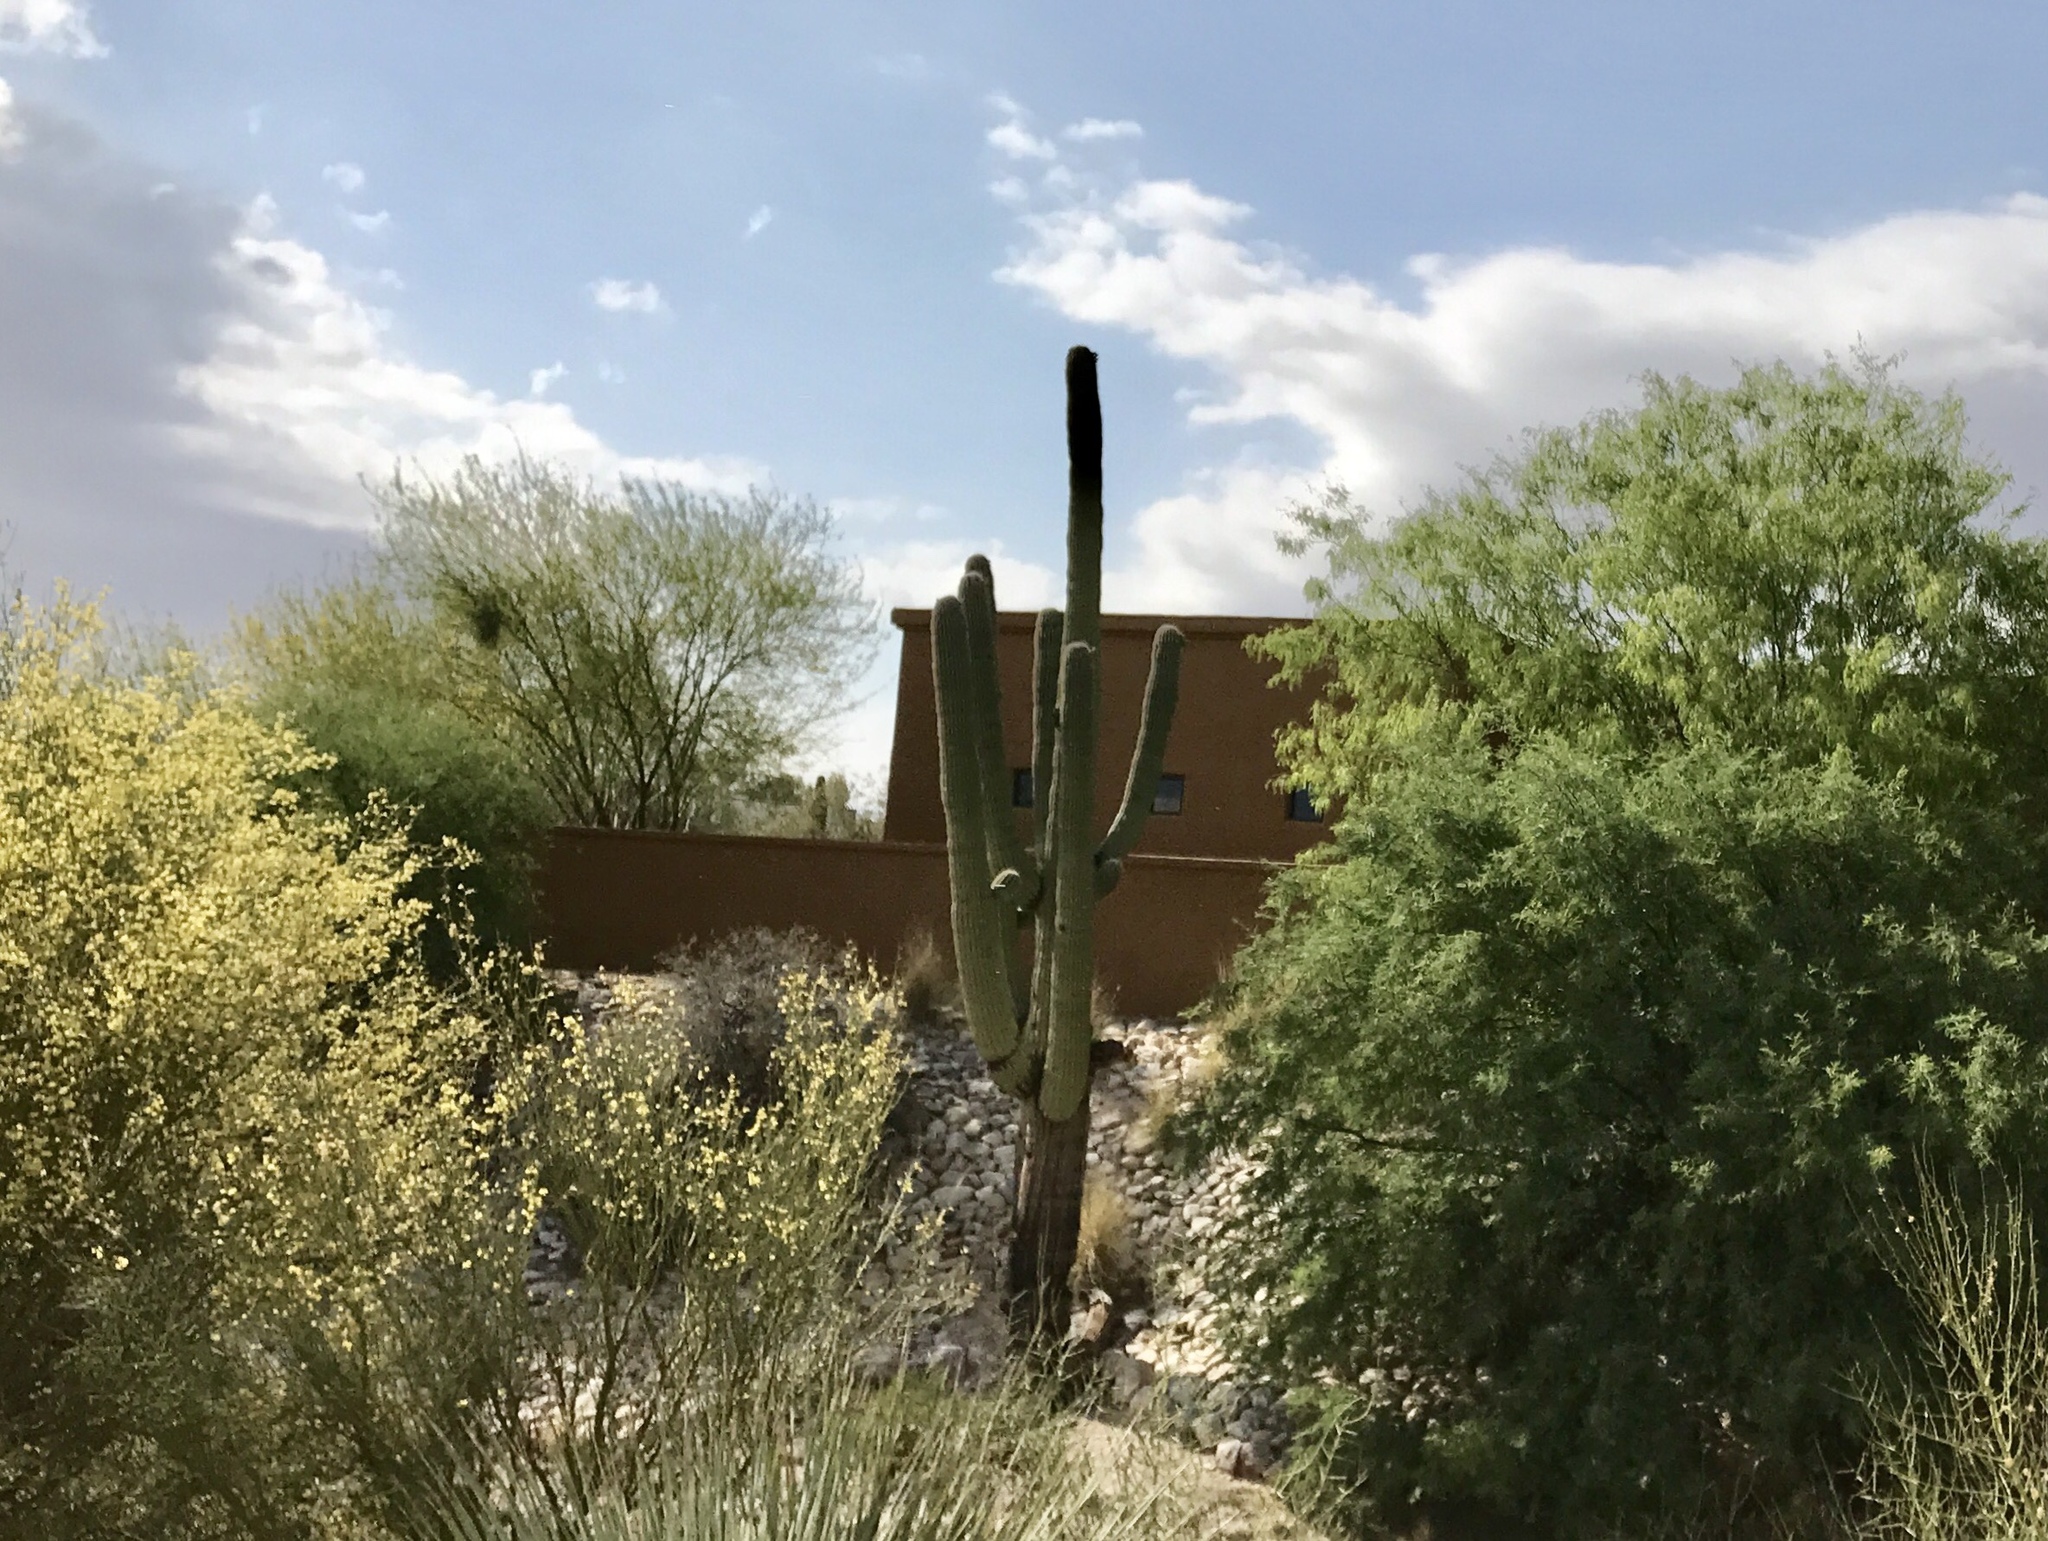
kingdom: Plantae
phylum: Tracheophyta
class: Magnoliopsida
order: Caryophyllales
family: Cactaceae
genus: Carnegiea
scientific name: Carnegiea gigantea
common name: Saguaro
